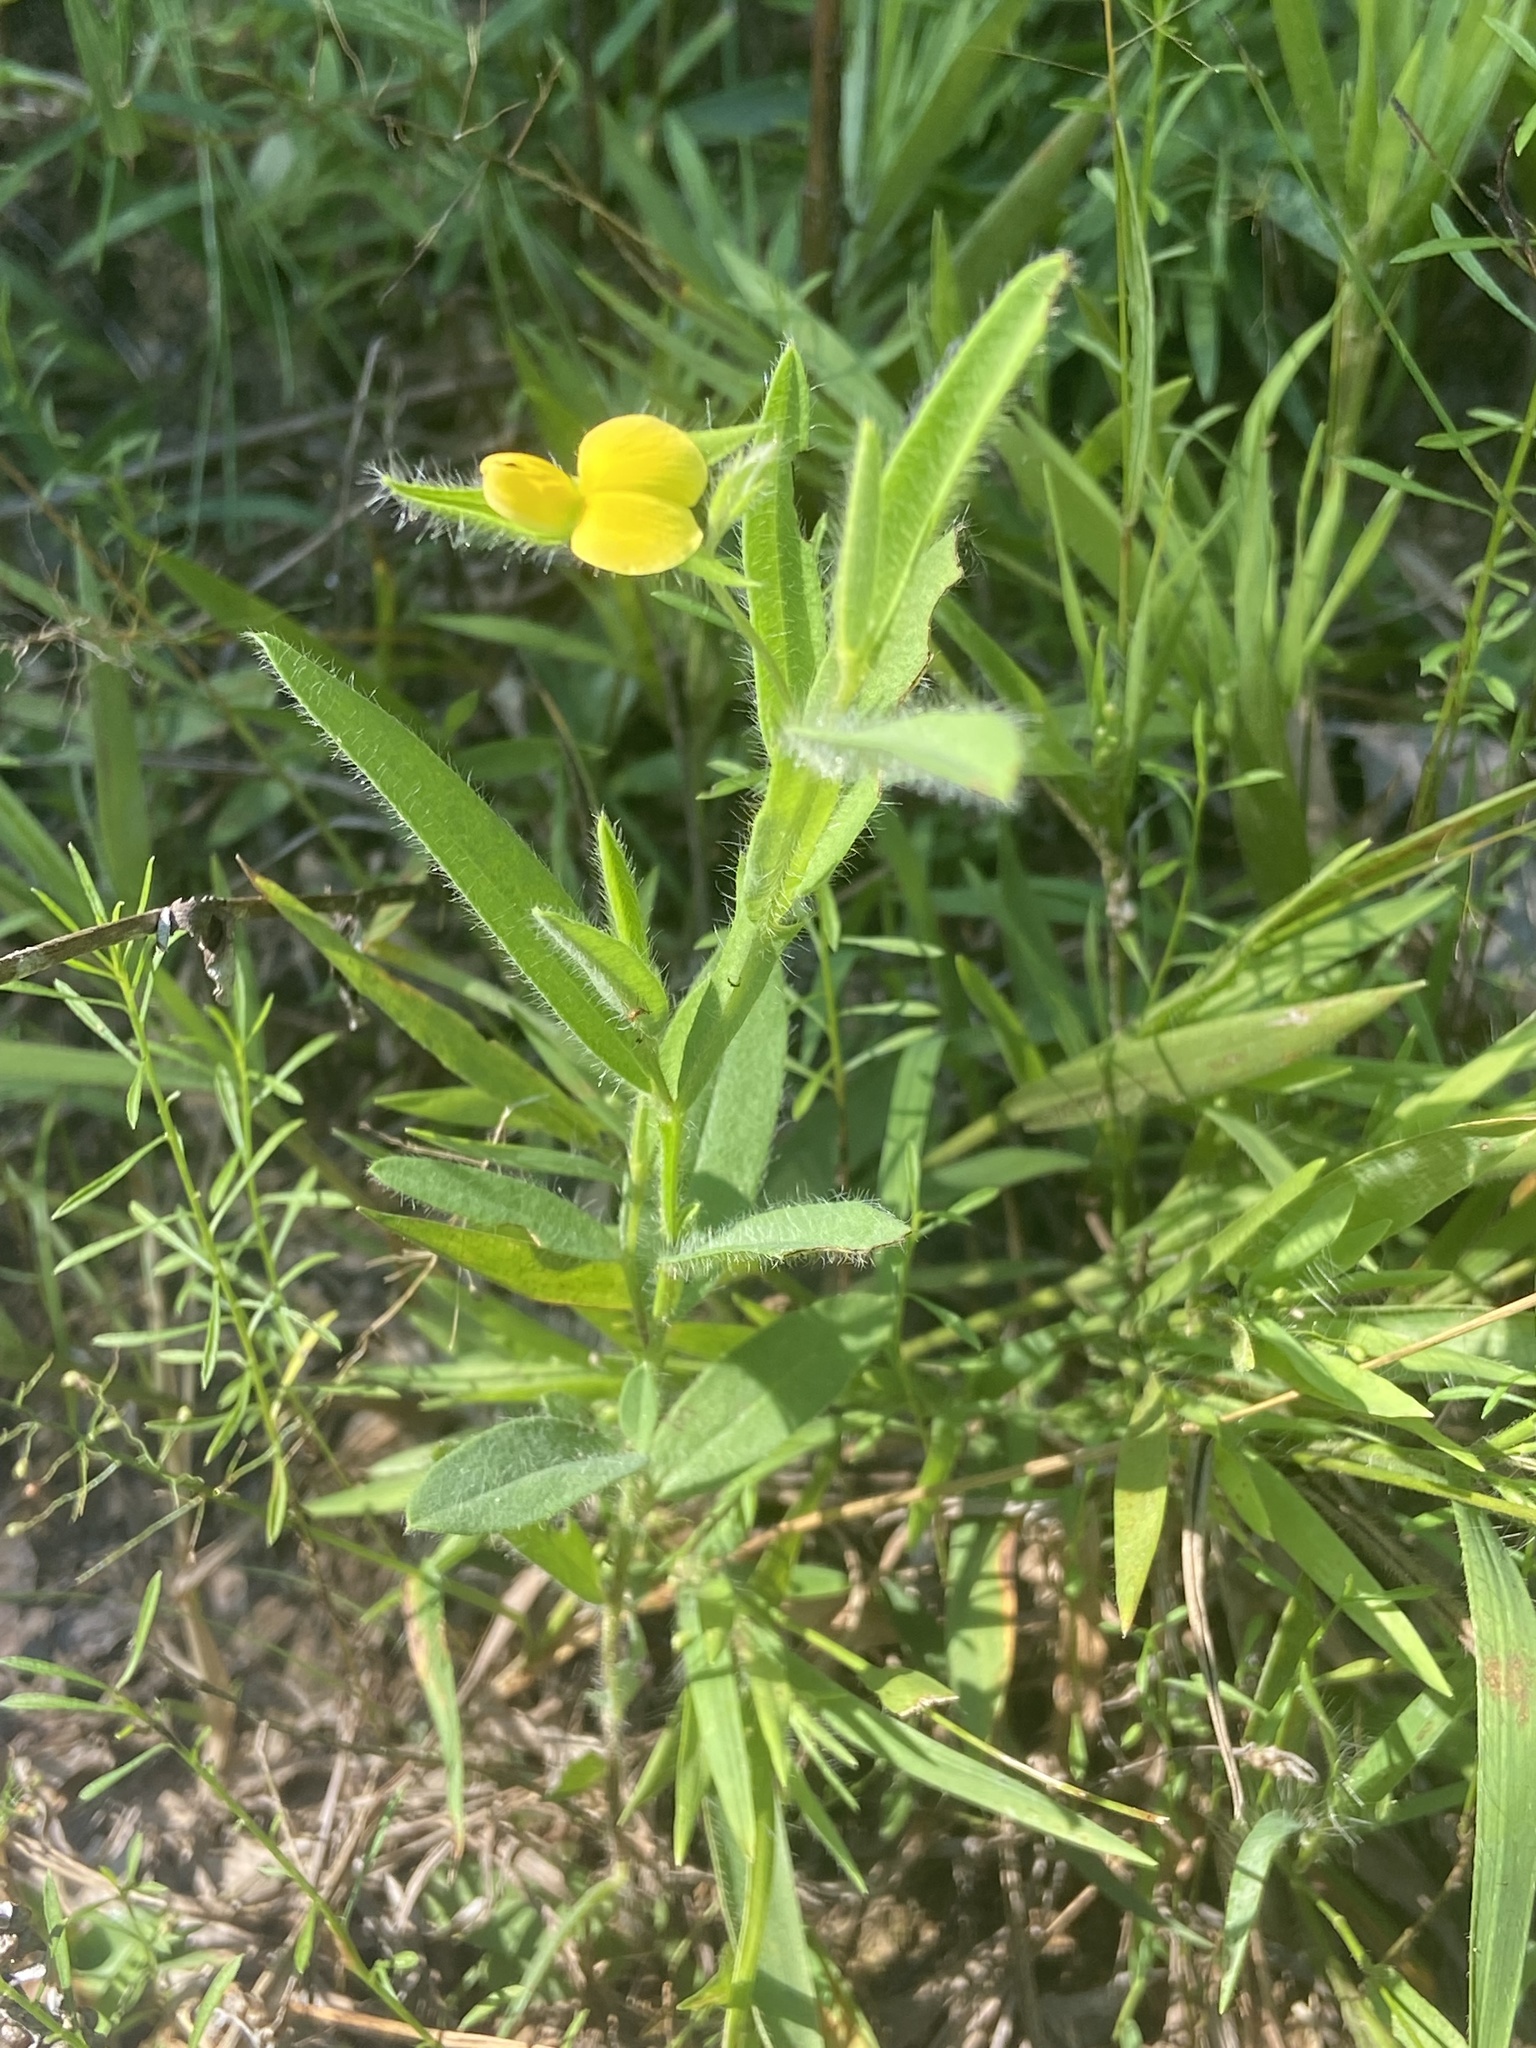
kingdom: Plantae
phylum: Tracheophyta
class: Magnoliopsida
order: Fabales
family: Fabaceae
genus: Crotalaria
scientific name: Crotalaria sagittalis
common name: Arrowhead rattlebox
